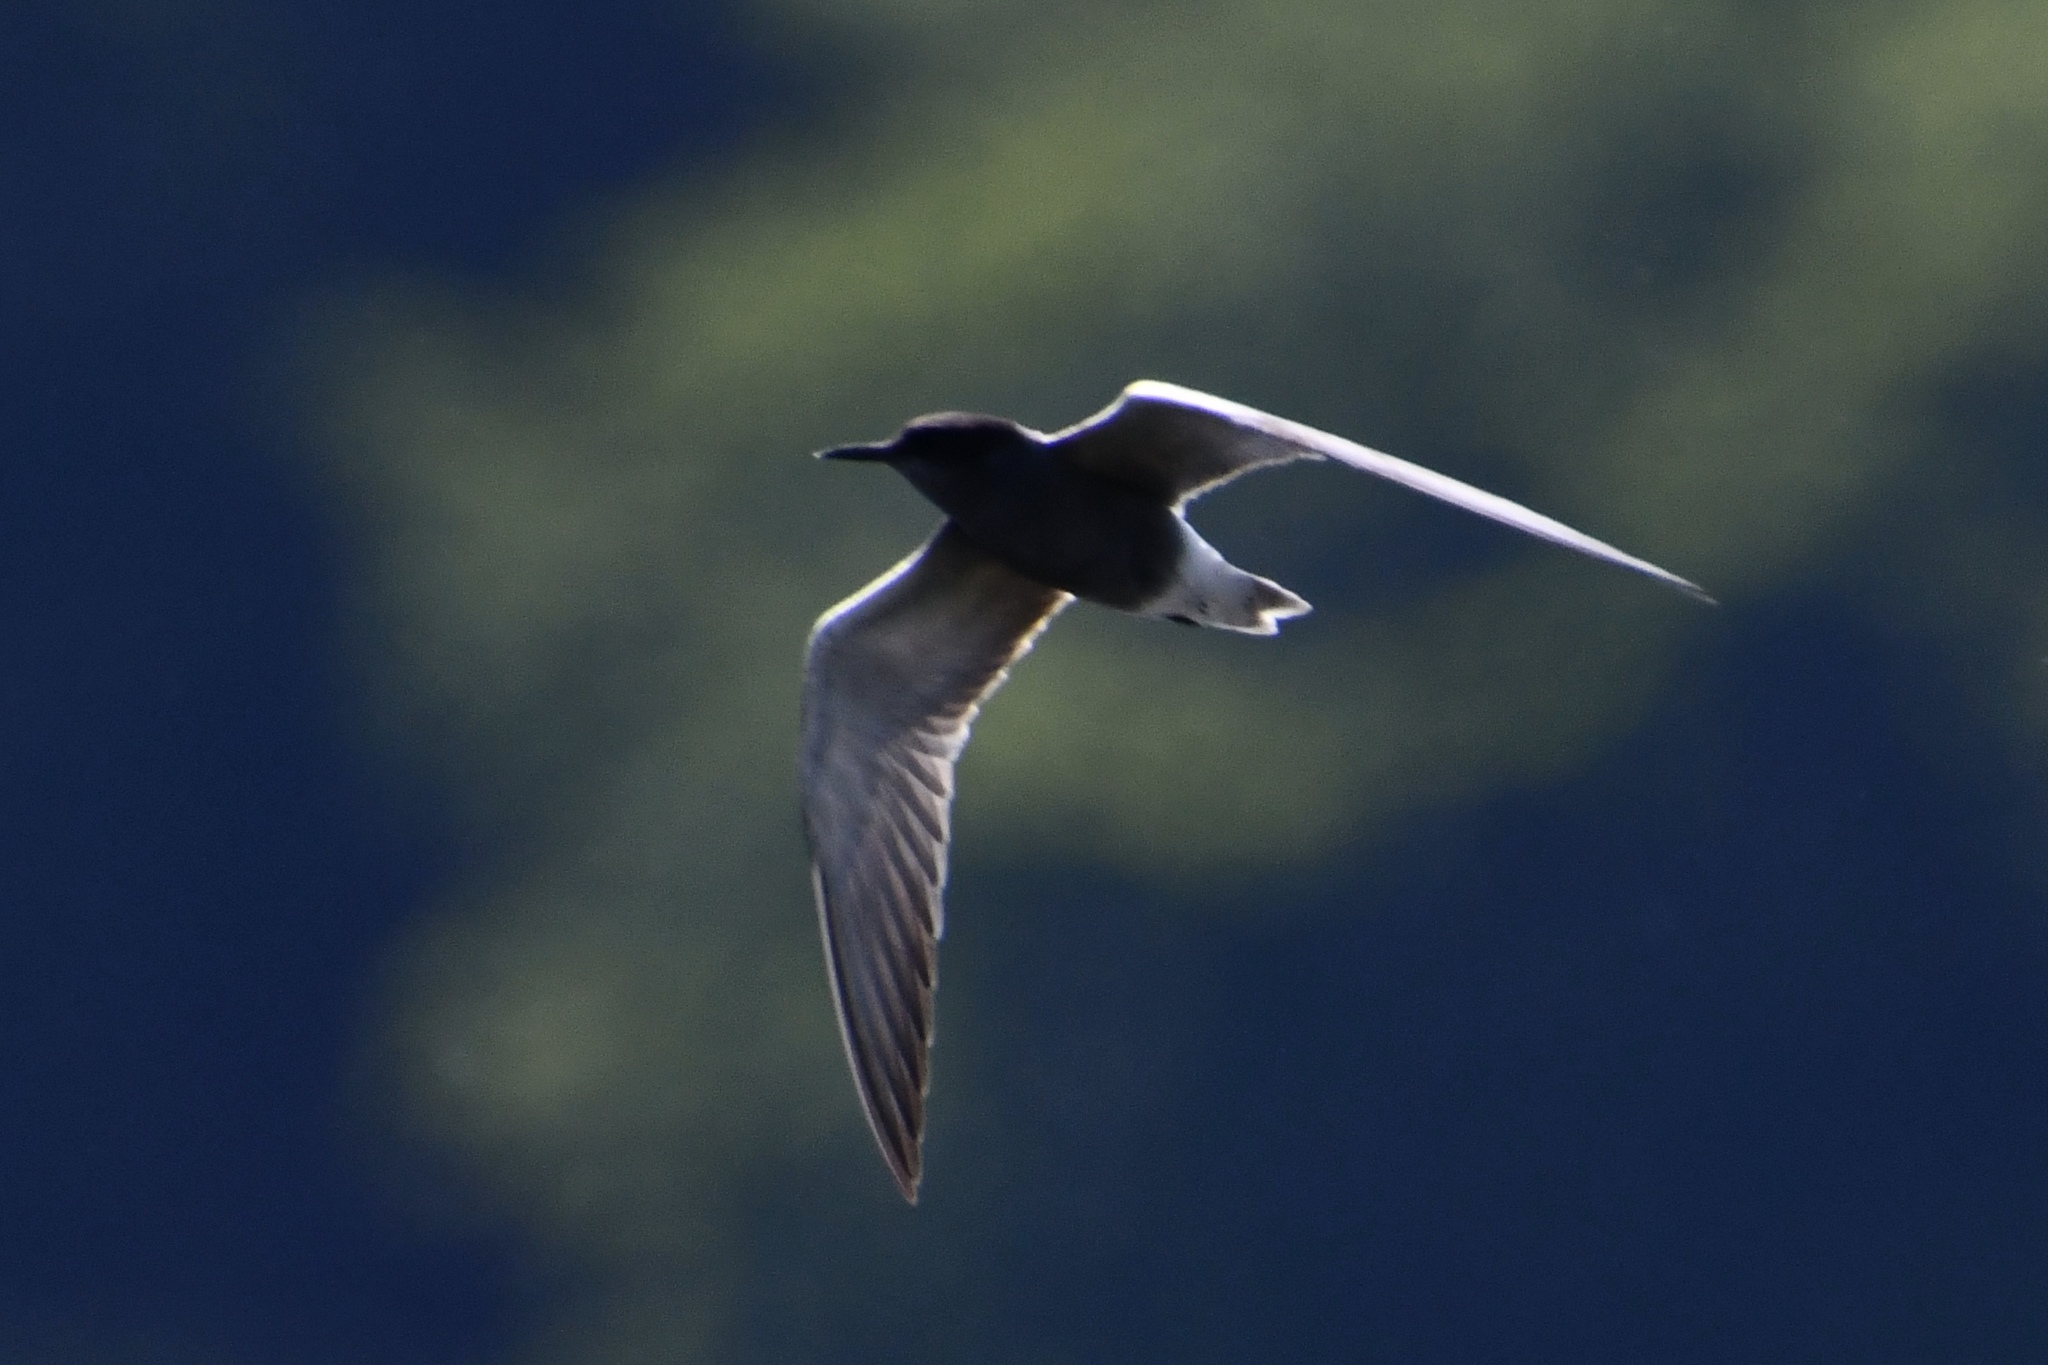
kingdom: Animalia
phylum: Chordata
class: Aves
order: Charadriiformes
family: Laridae
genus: Chlidonias
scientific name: Chlidonias niger
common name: Black tern
